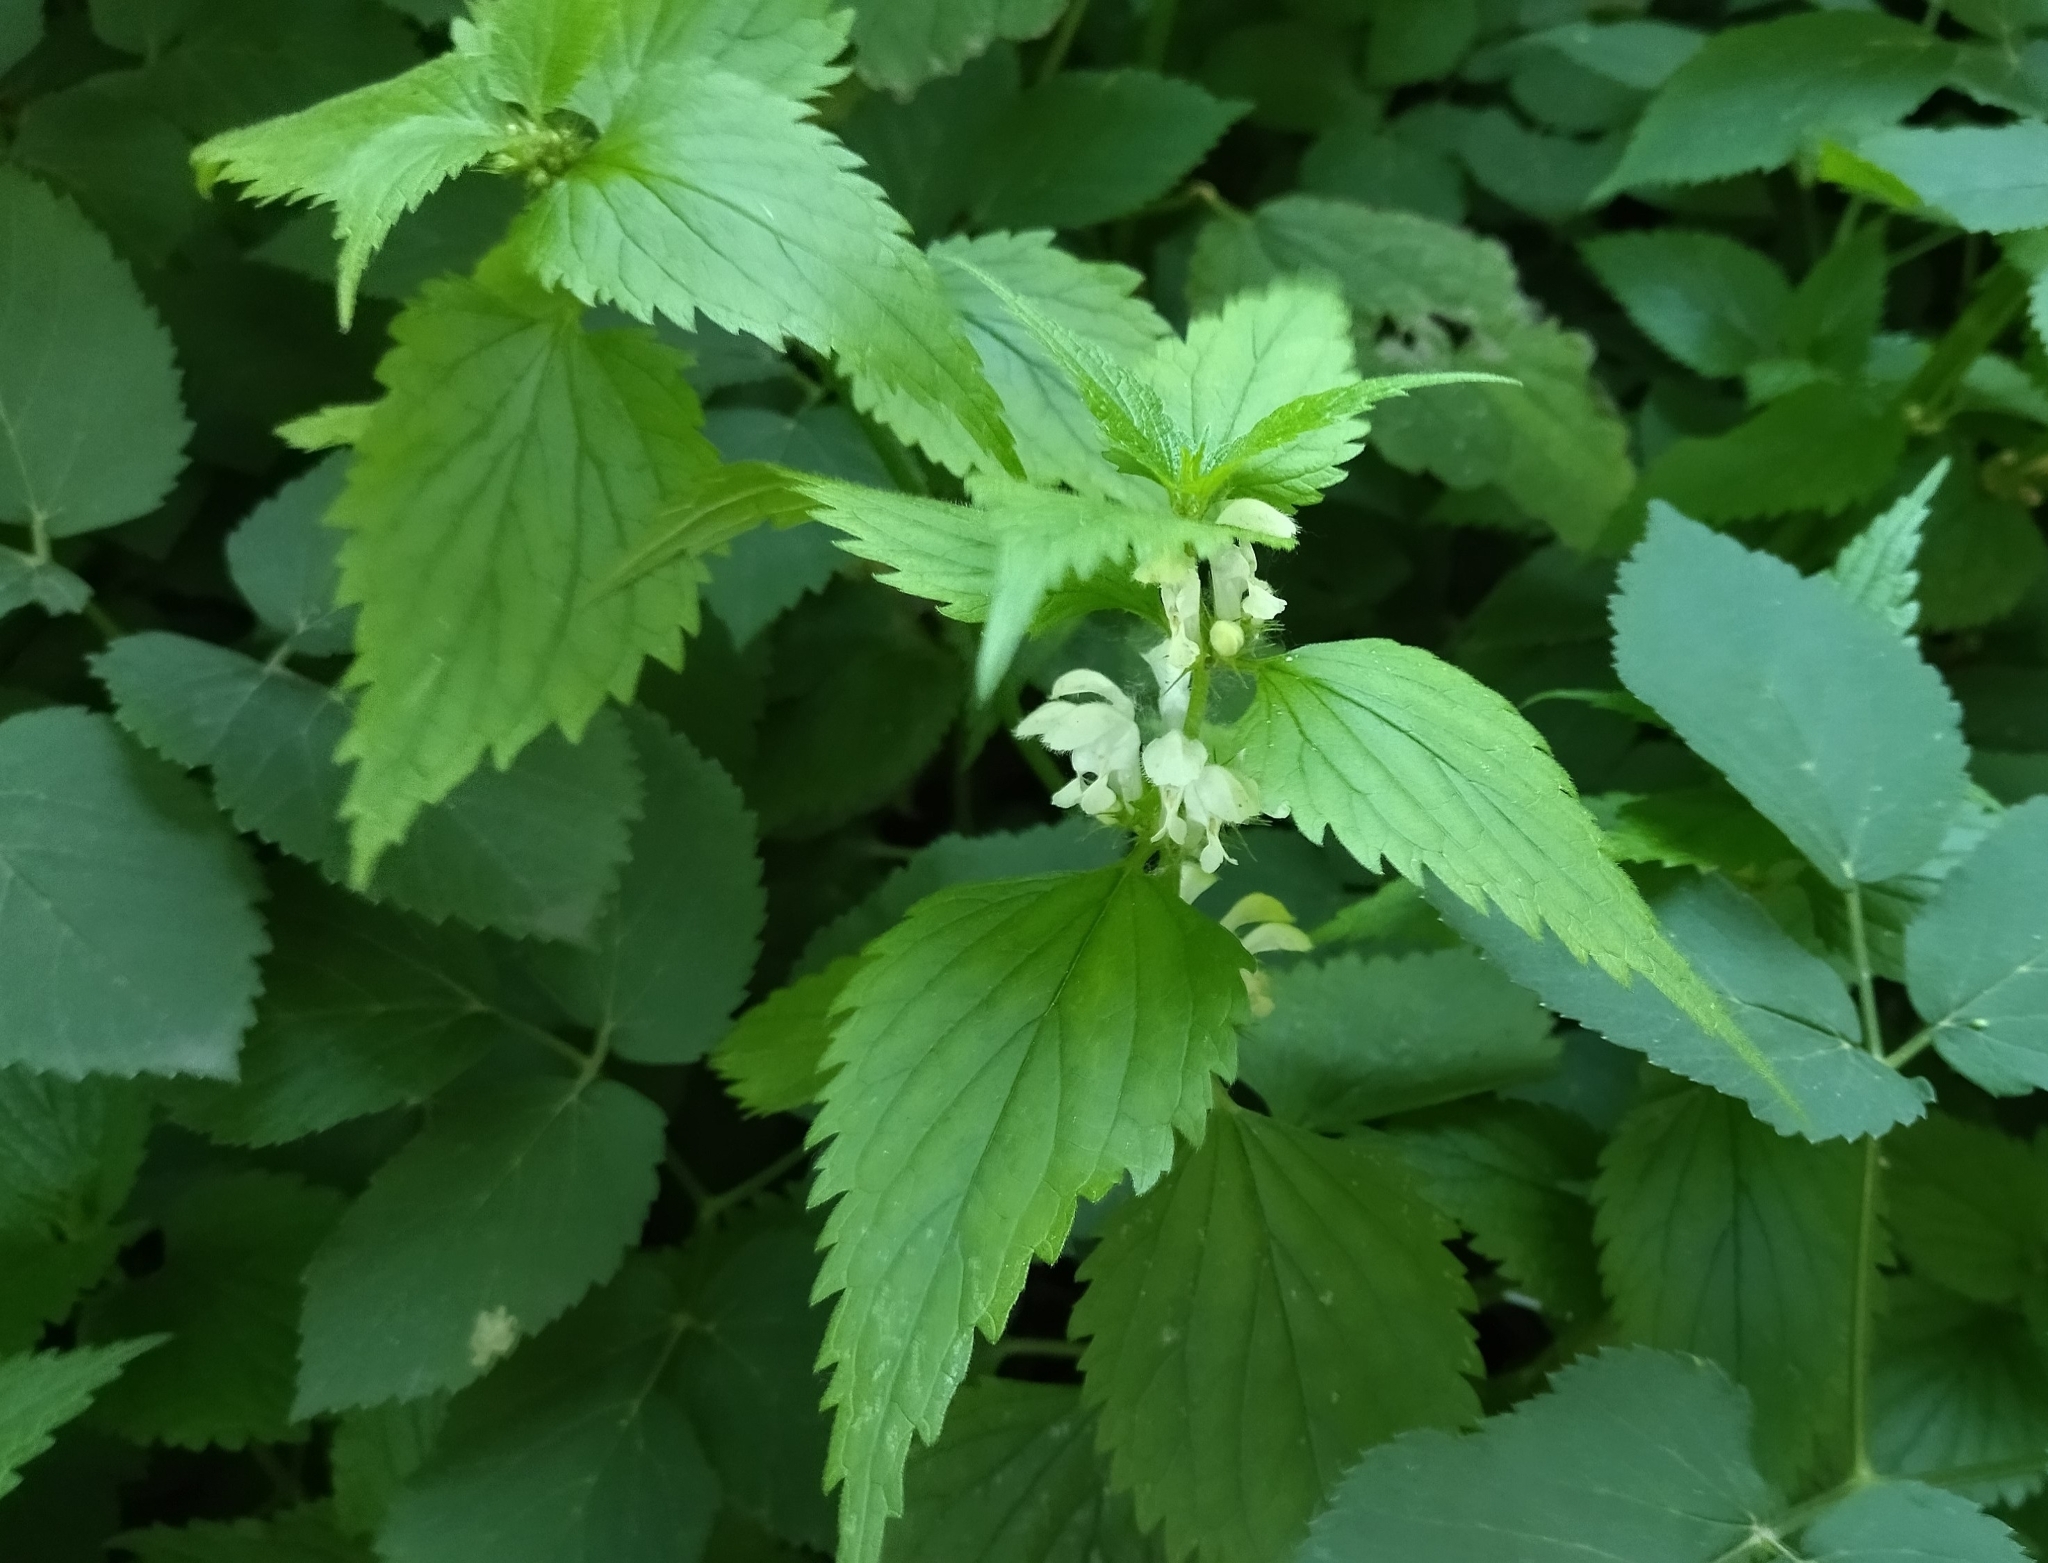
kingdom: Plantae
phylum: Tracheophyta
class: Magnoliopsida
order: Lamiales
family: Lamiaceae
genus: Lamium
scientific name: Lamium album
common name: White dead-nettle
